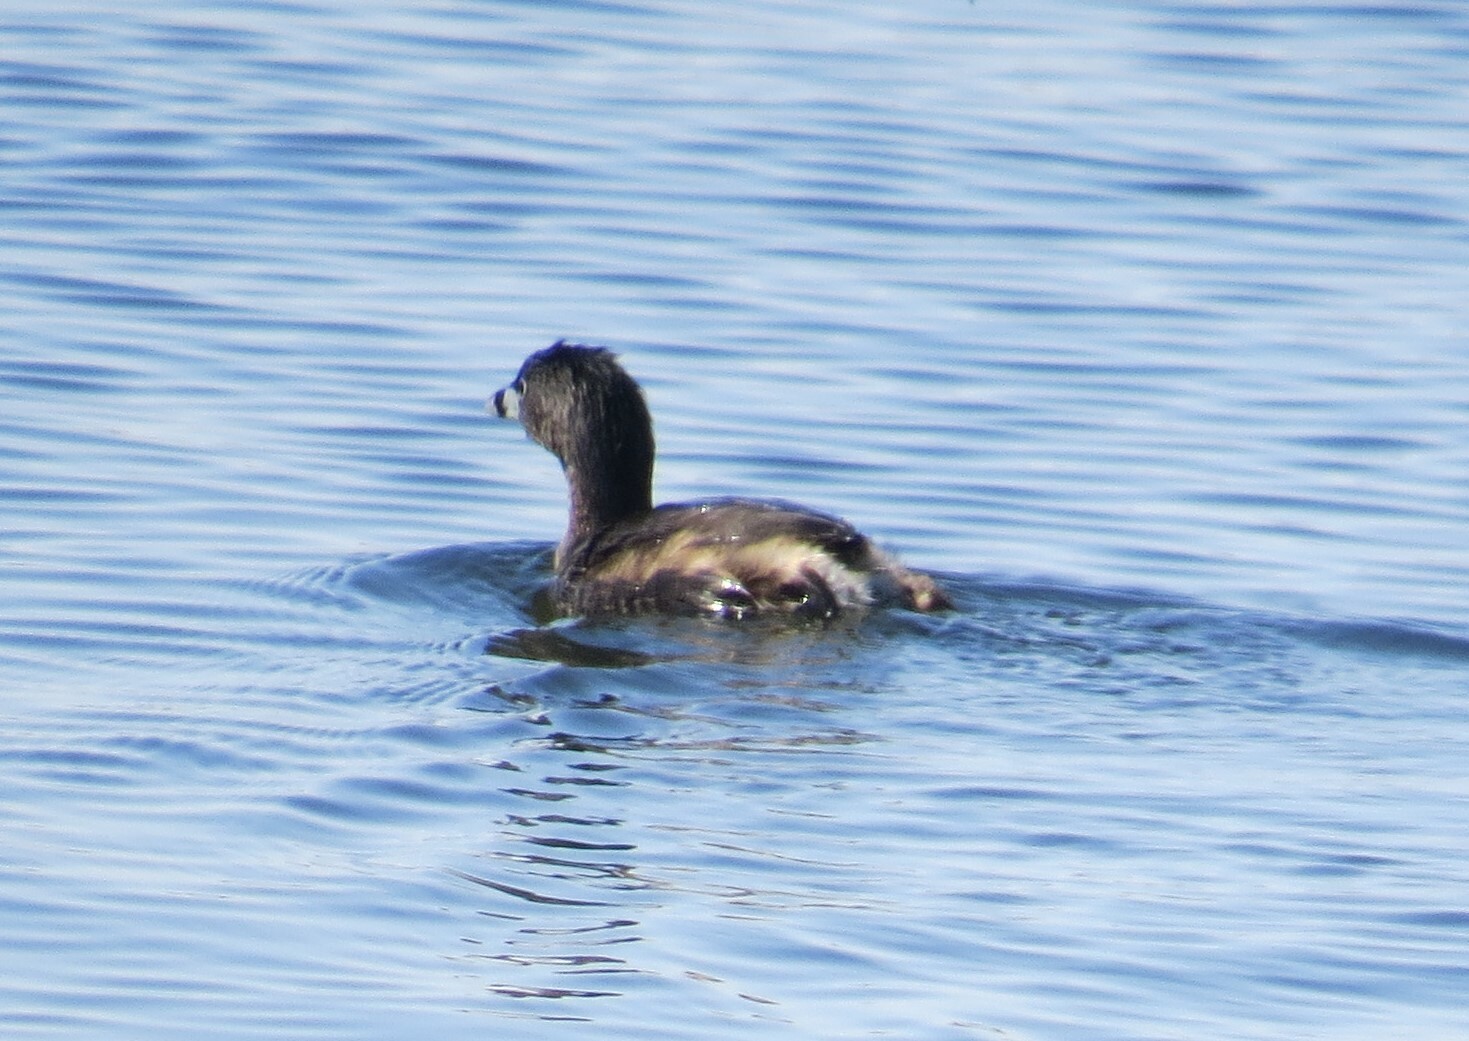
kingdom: Animalia
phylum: Chordata
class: Aves
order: Podicipediformes
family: Podicipedidae
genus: Podilymbus
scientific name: Podilymbus podiceps
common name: Pied-billed grebe
